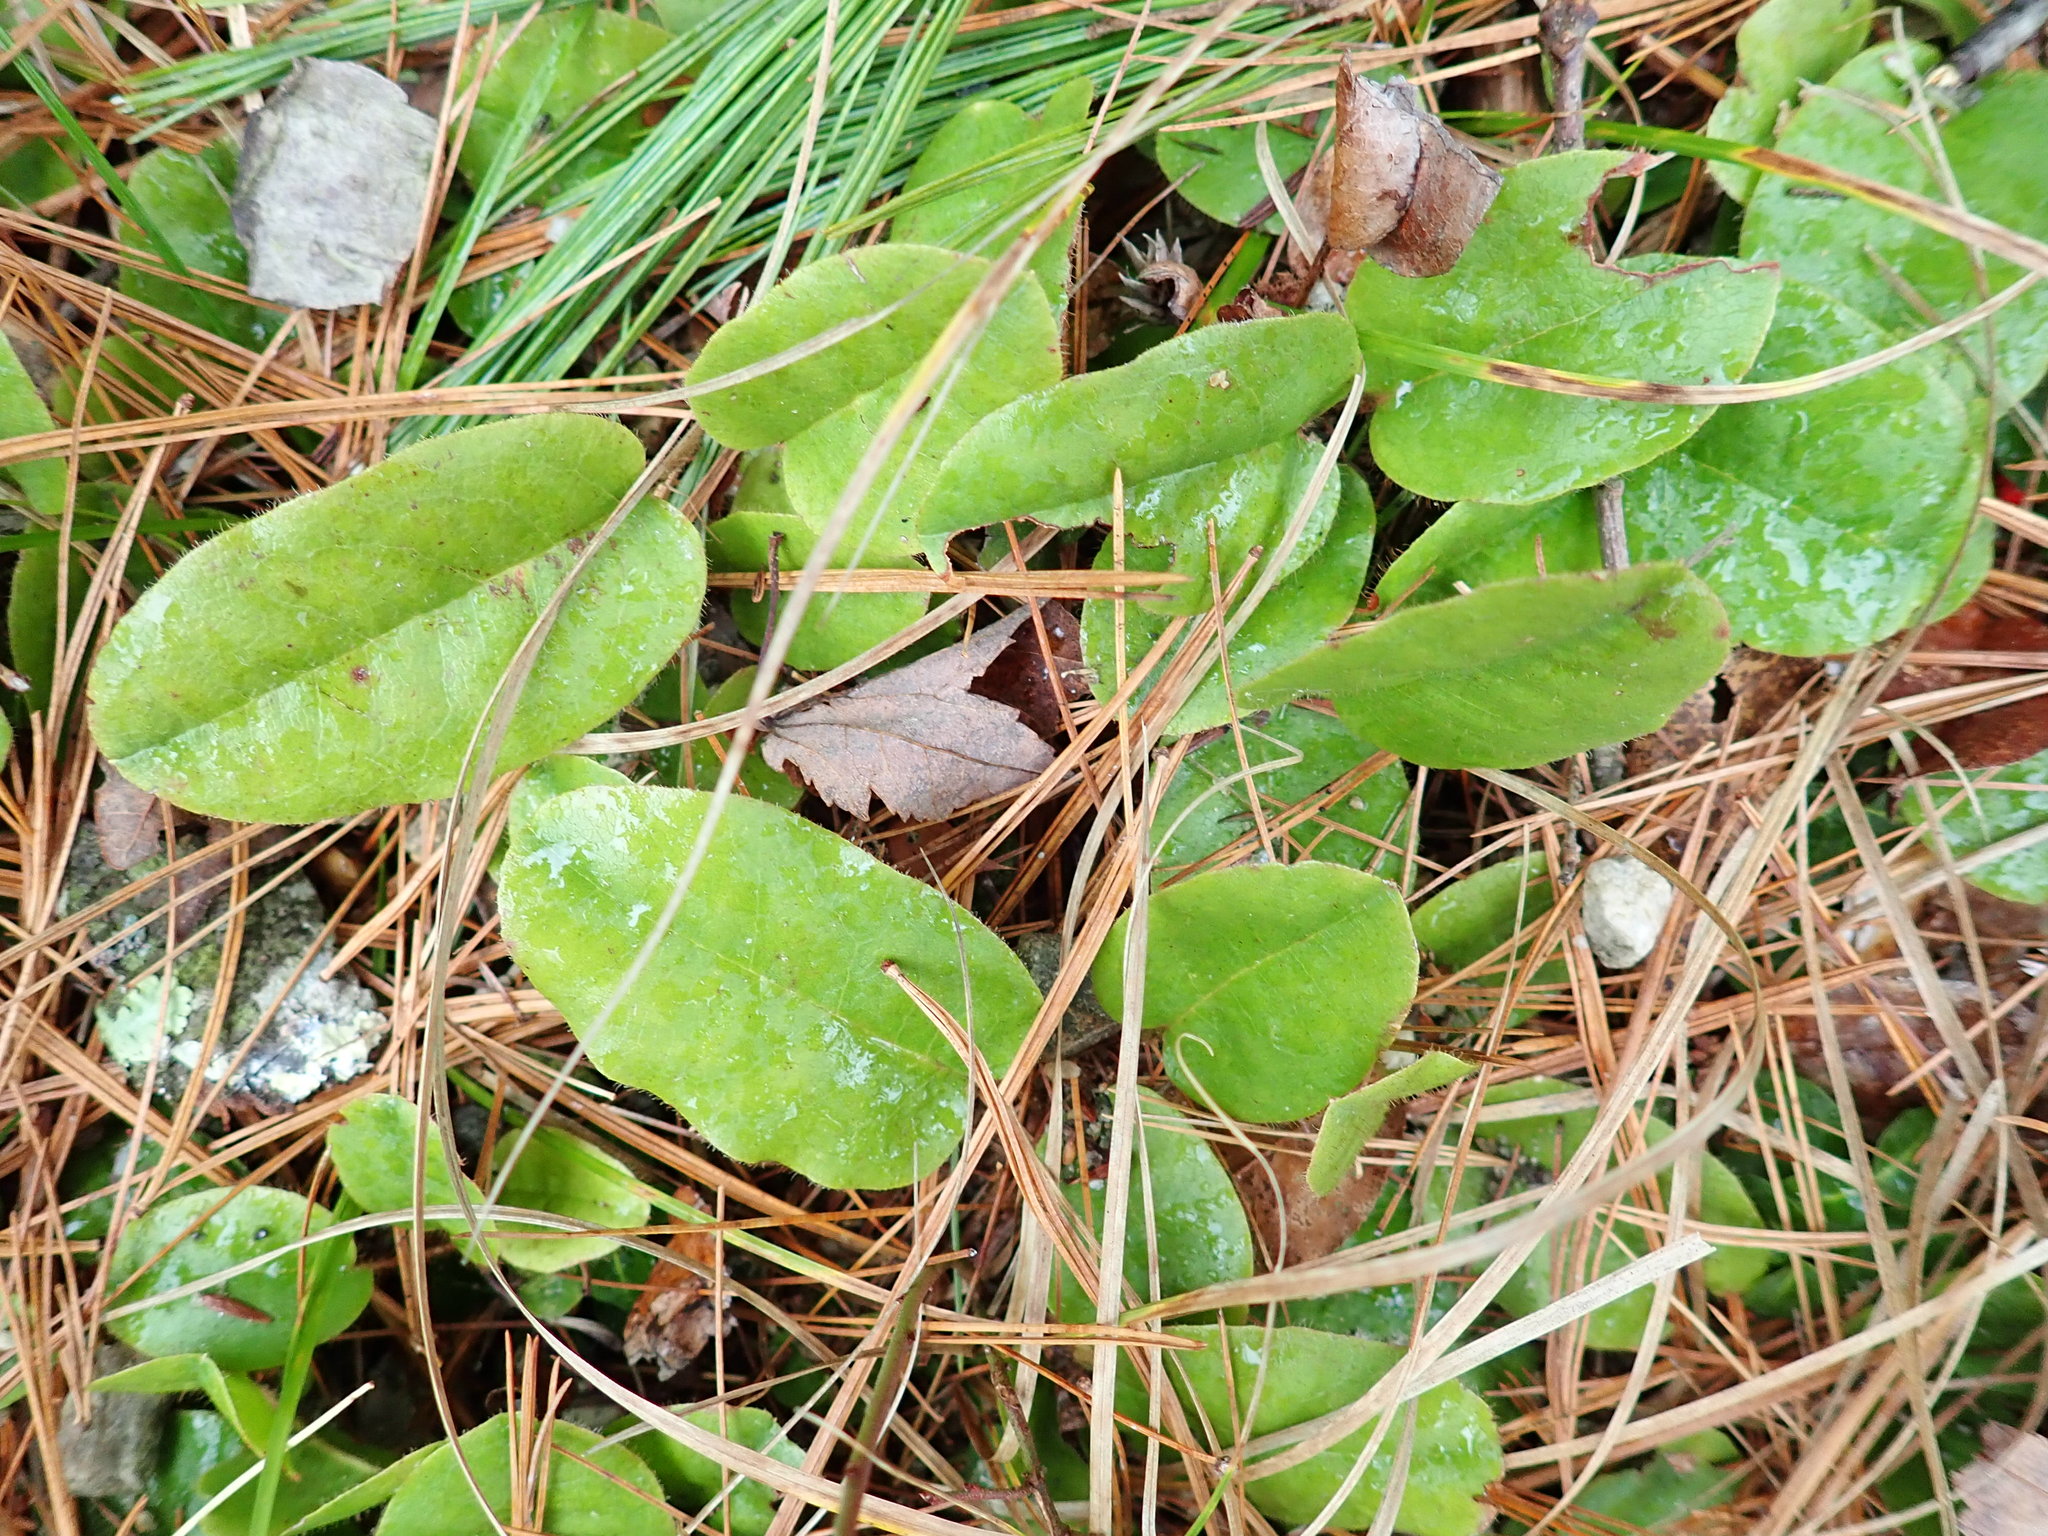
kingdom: Plantae
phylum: Tracheophyta
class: Magnoliopsida
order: Ericales
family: Ericaceae
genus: Epigaea
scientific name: Epigaea repens
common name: Gravelroot
